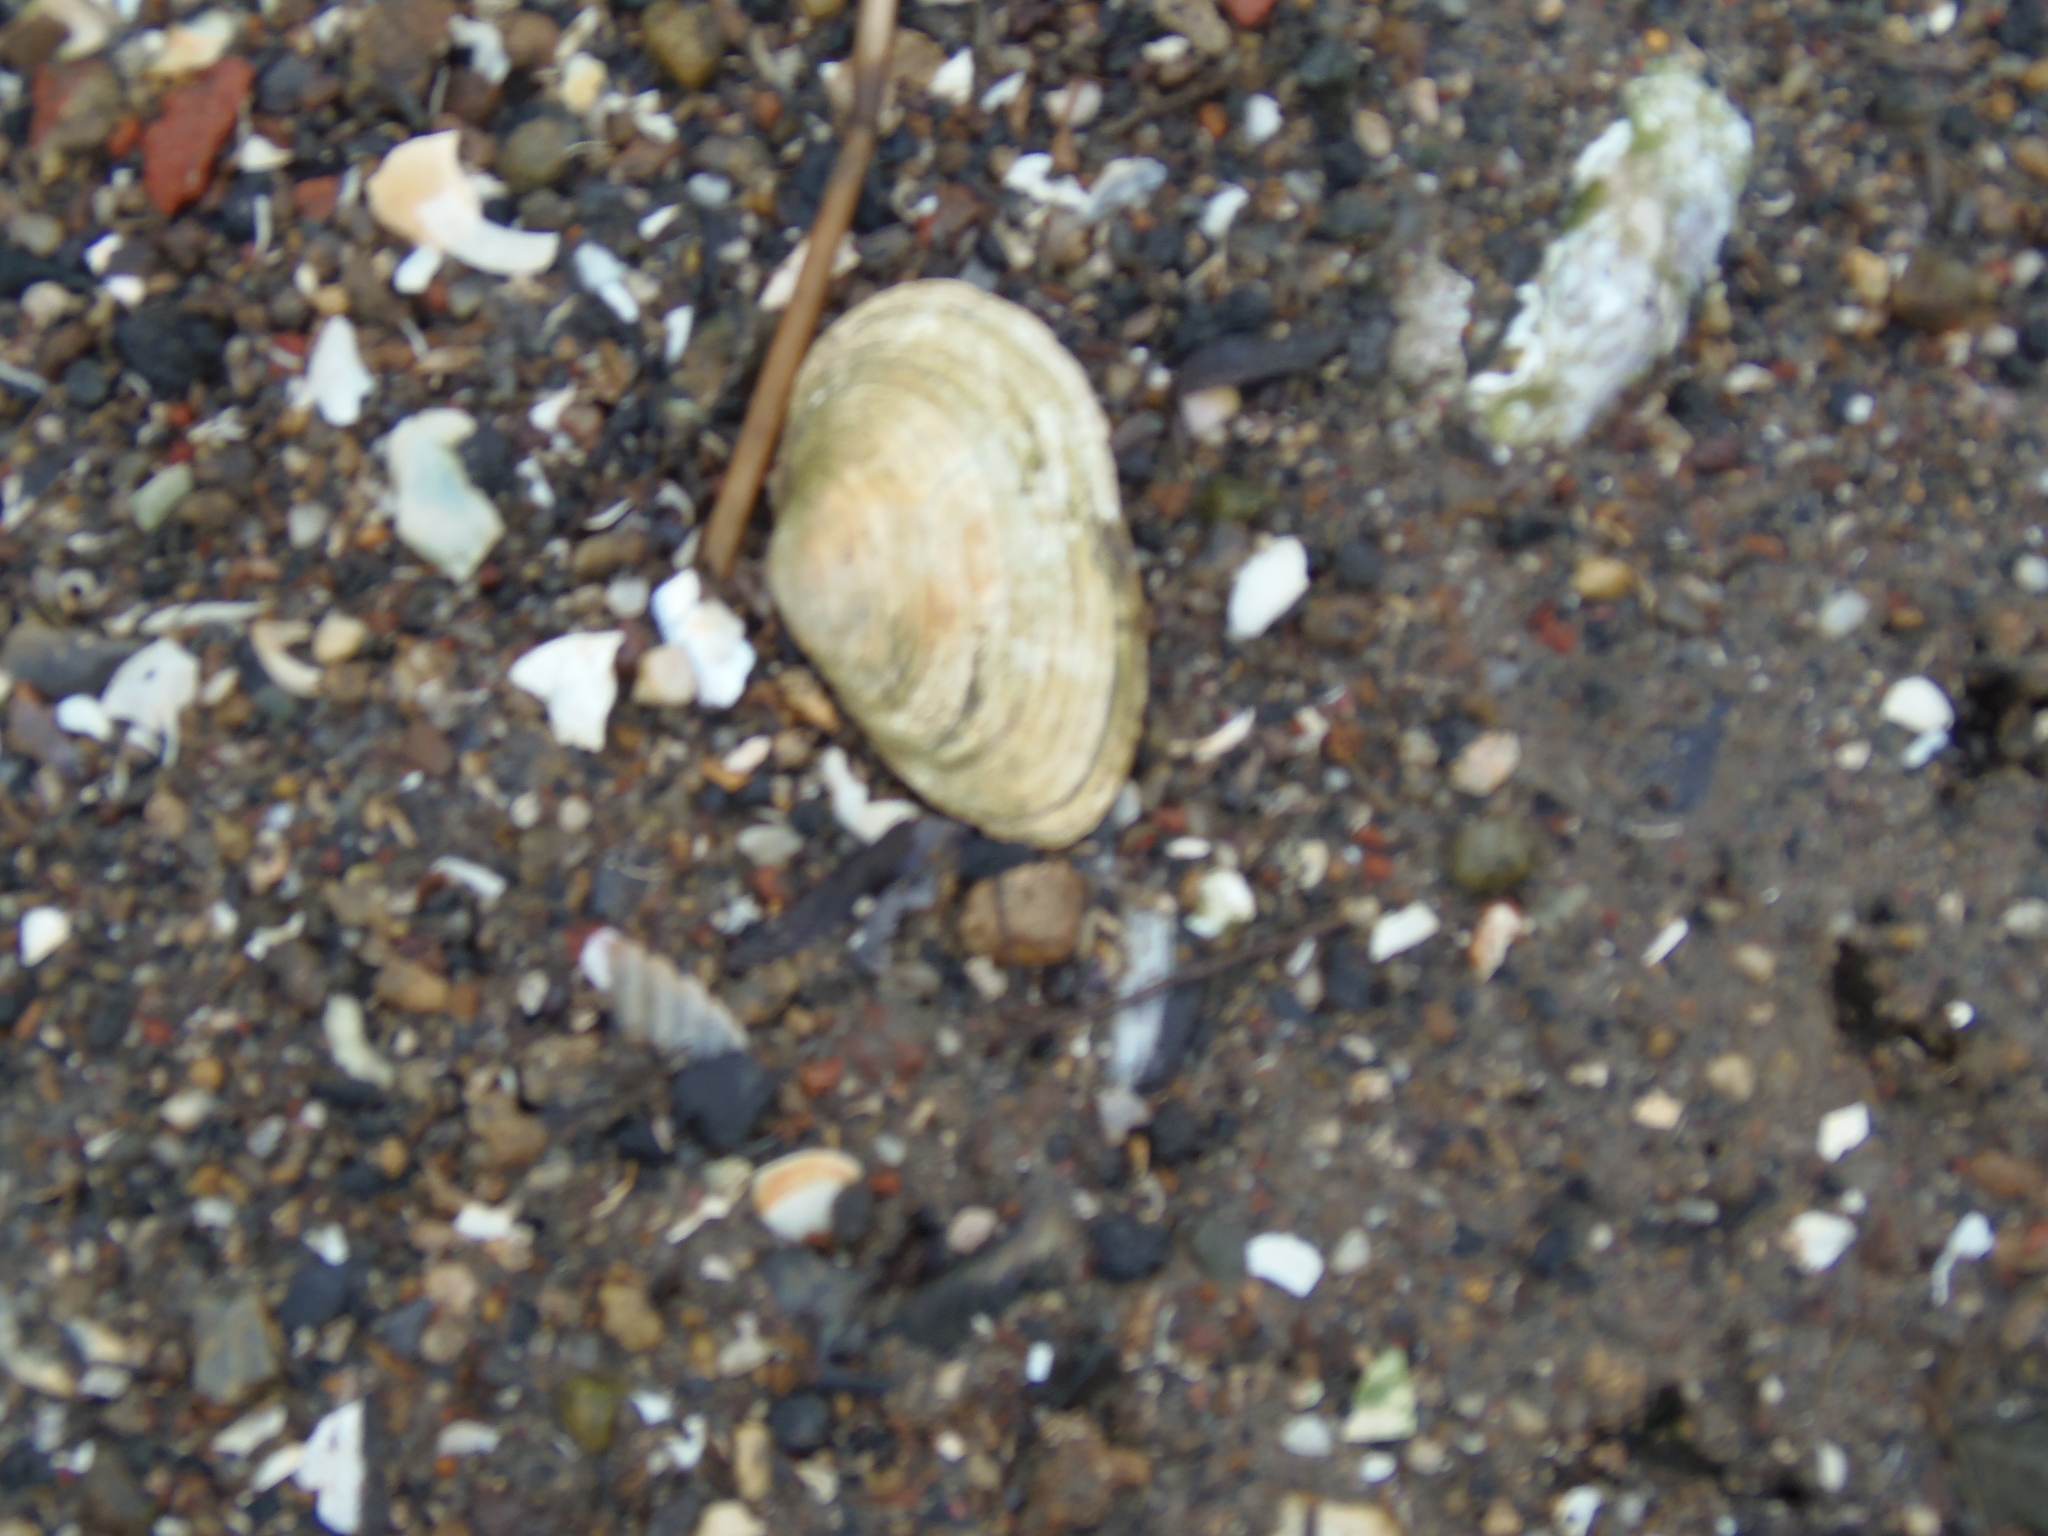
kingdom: Animalia
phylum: Mollusca
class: Bivalvia
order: Myida
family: Myidae
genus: Mya
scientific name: Mya arenaria
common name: Soft-shelled clam
